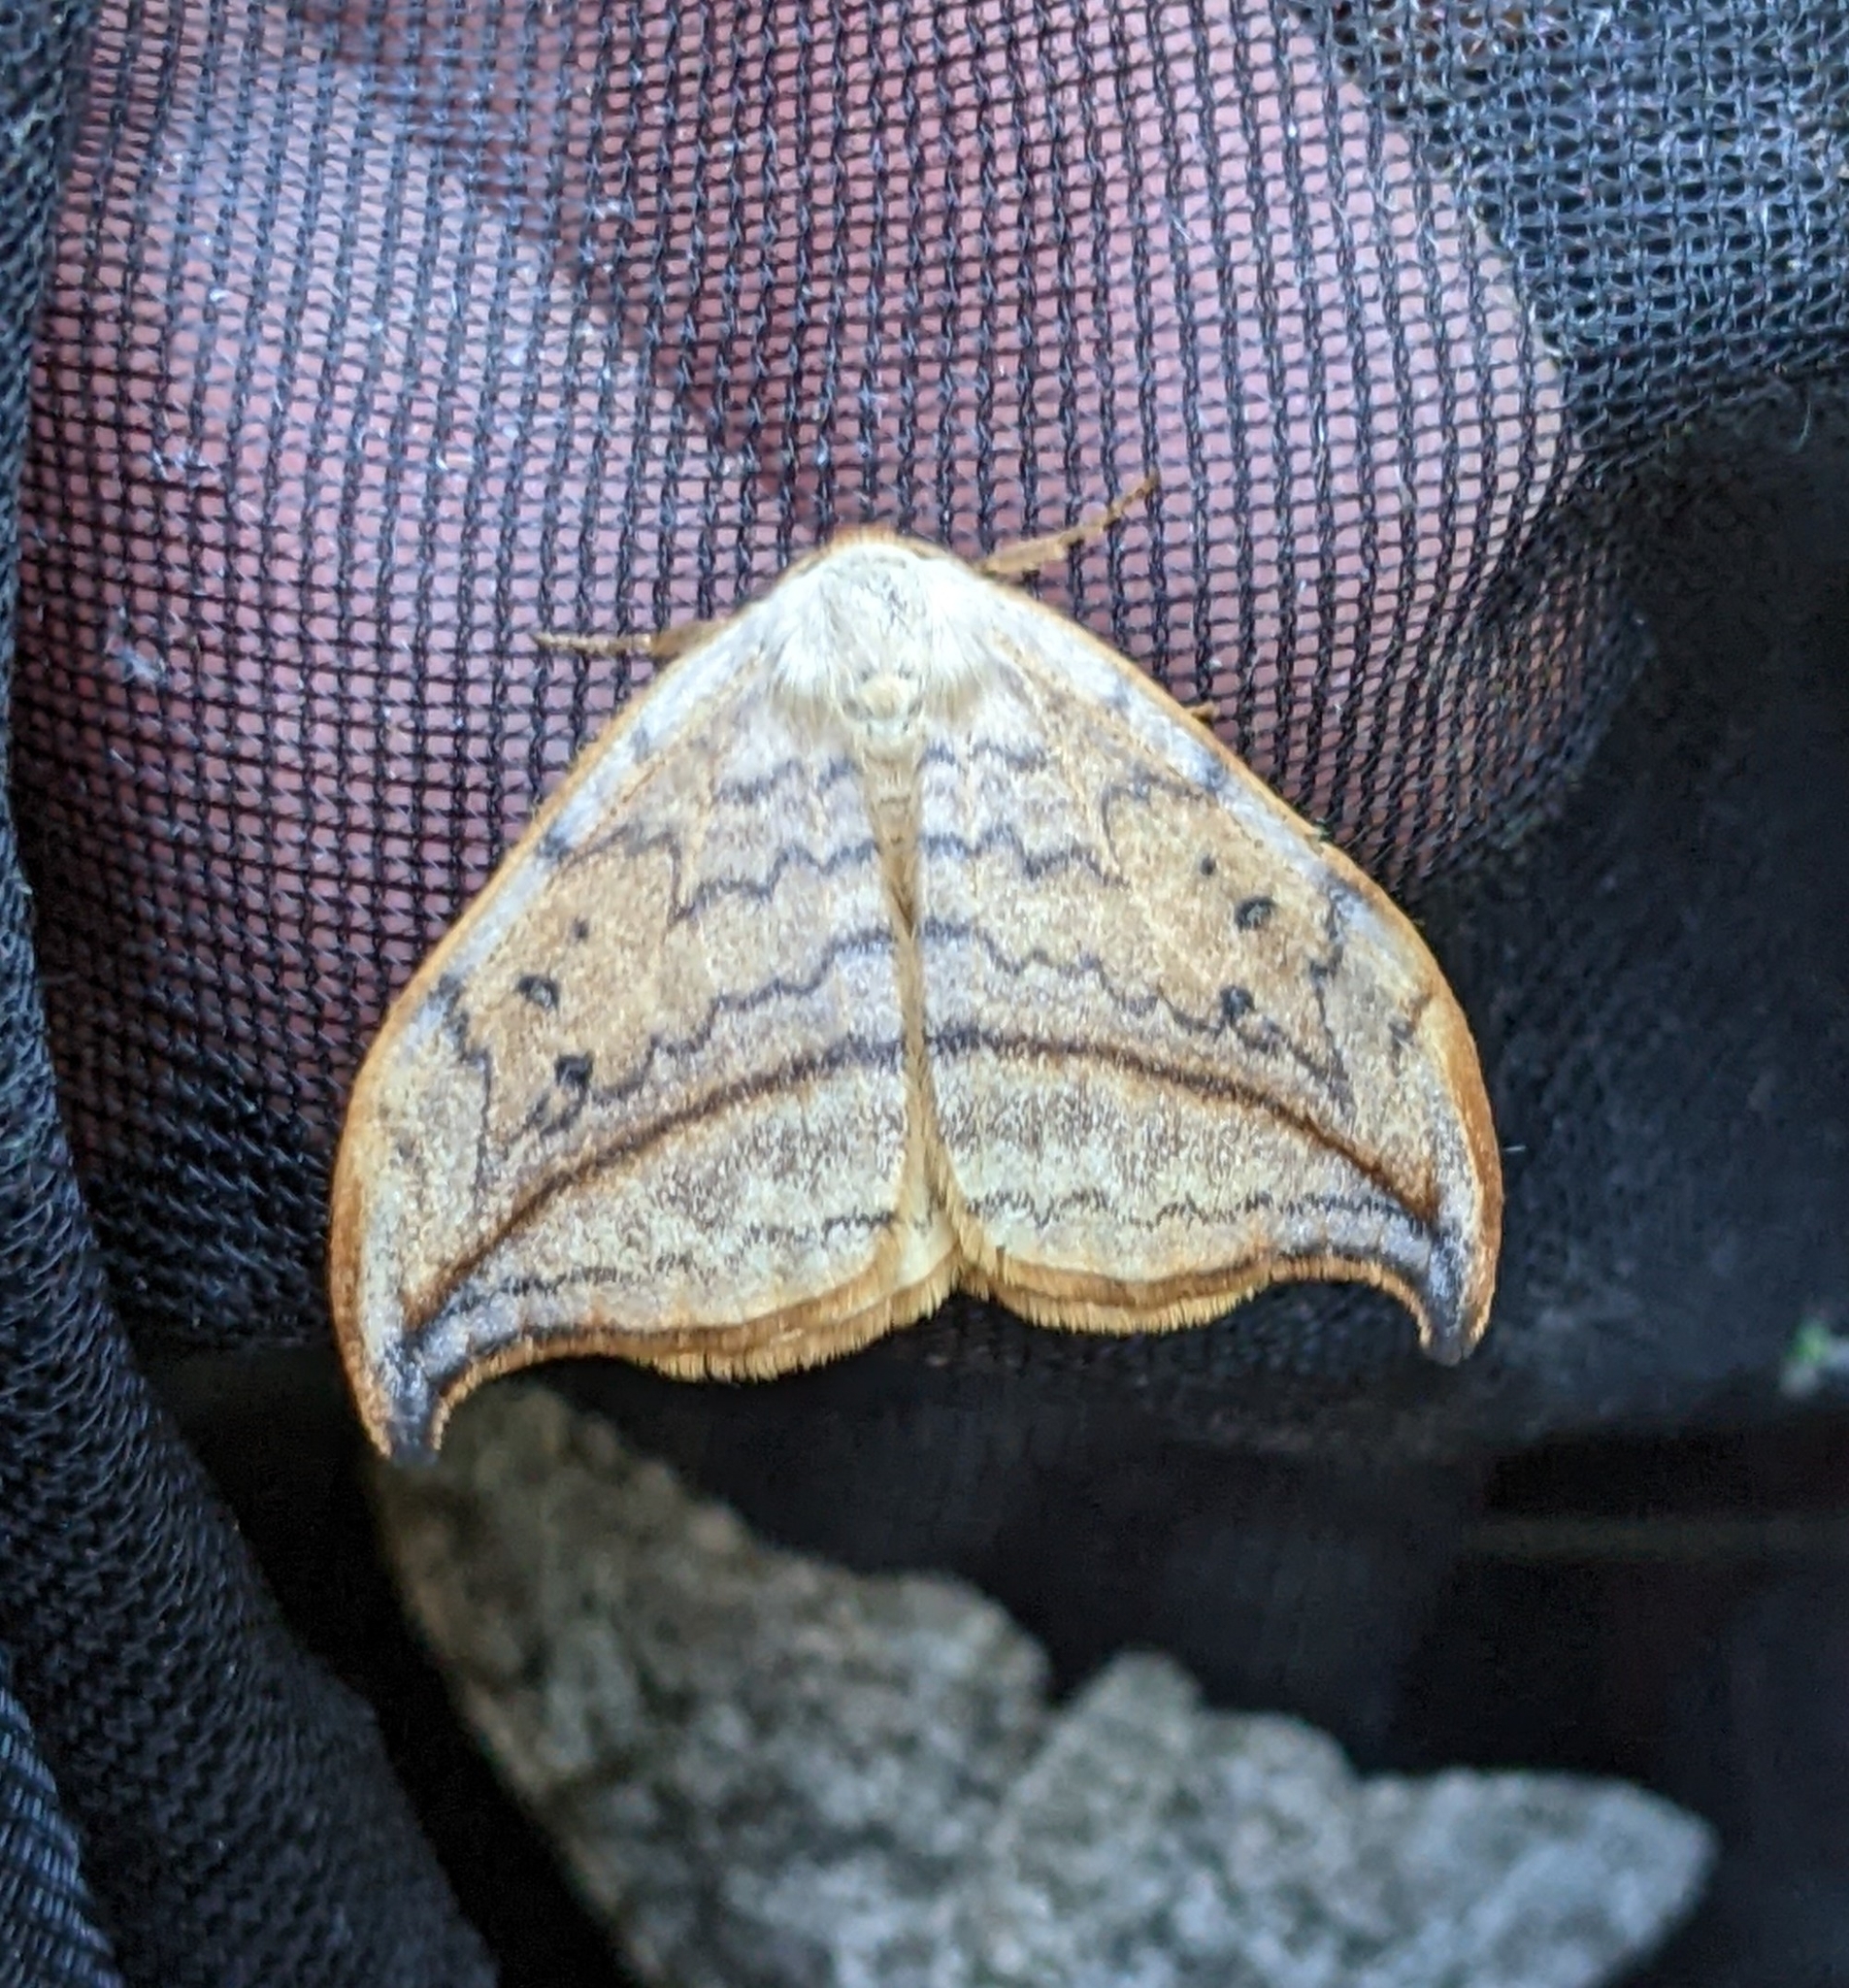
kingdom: Animalia
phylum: Arthropoda
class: Insecta
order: Lepidoptera
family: Drepanidae
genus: Drepana
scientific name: Drepana arcuata
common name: Arched hooktip moth
